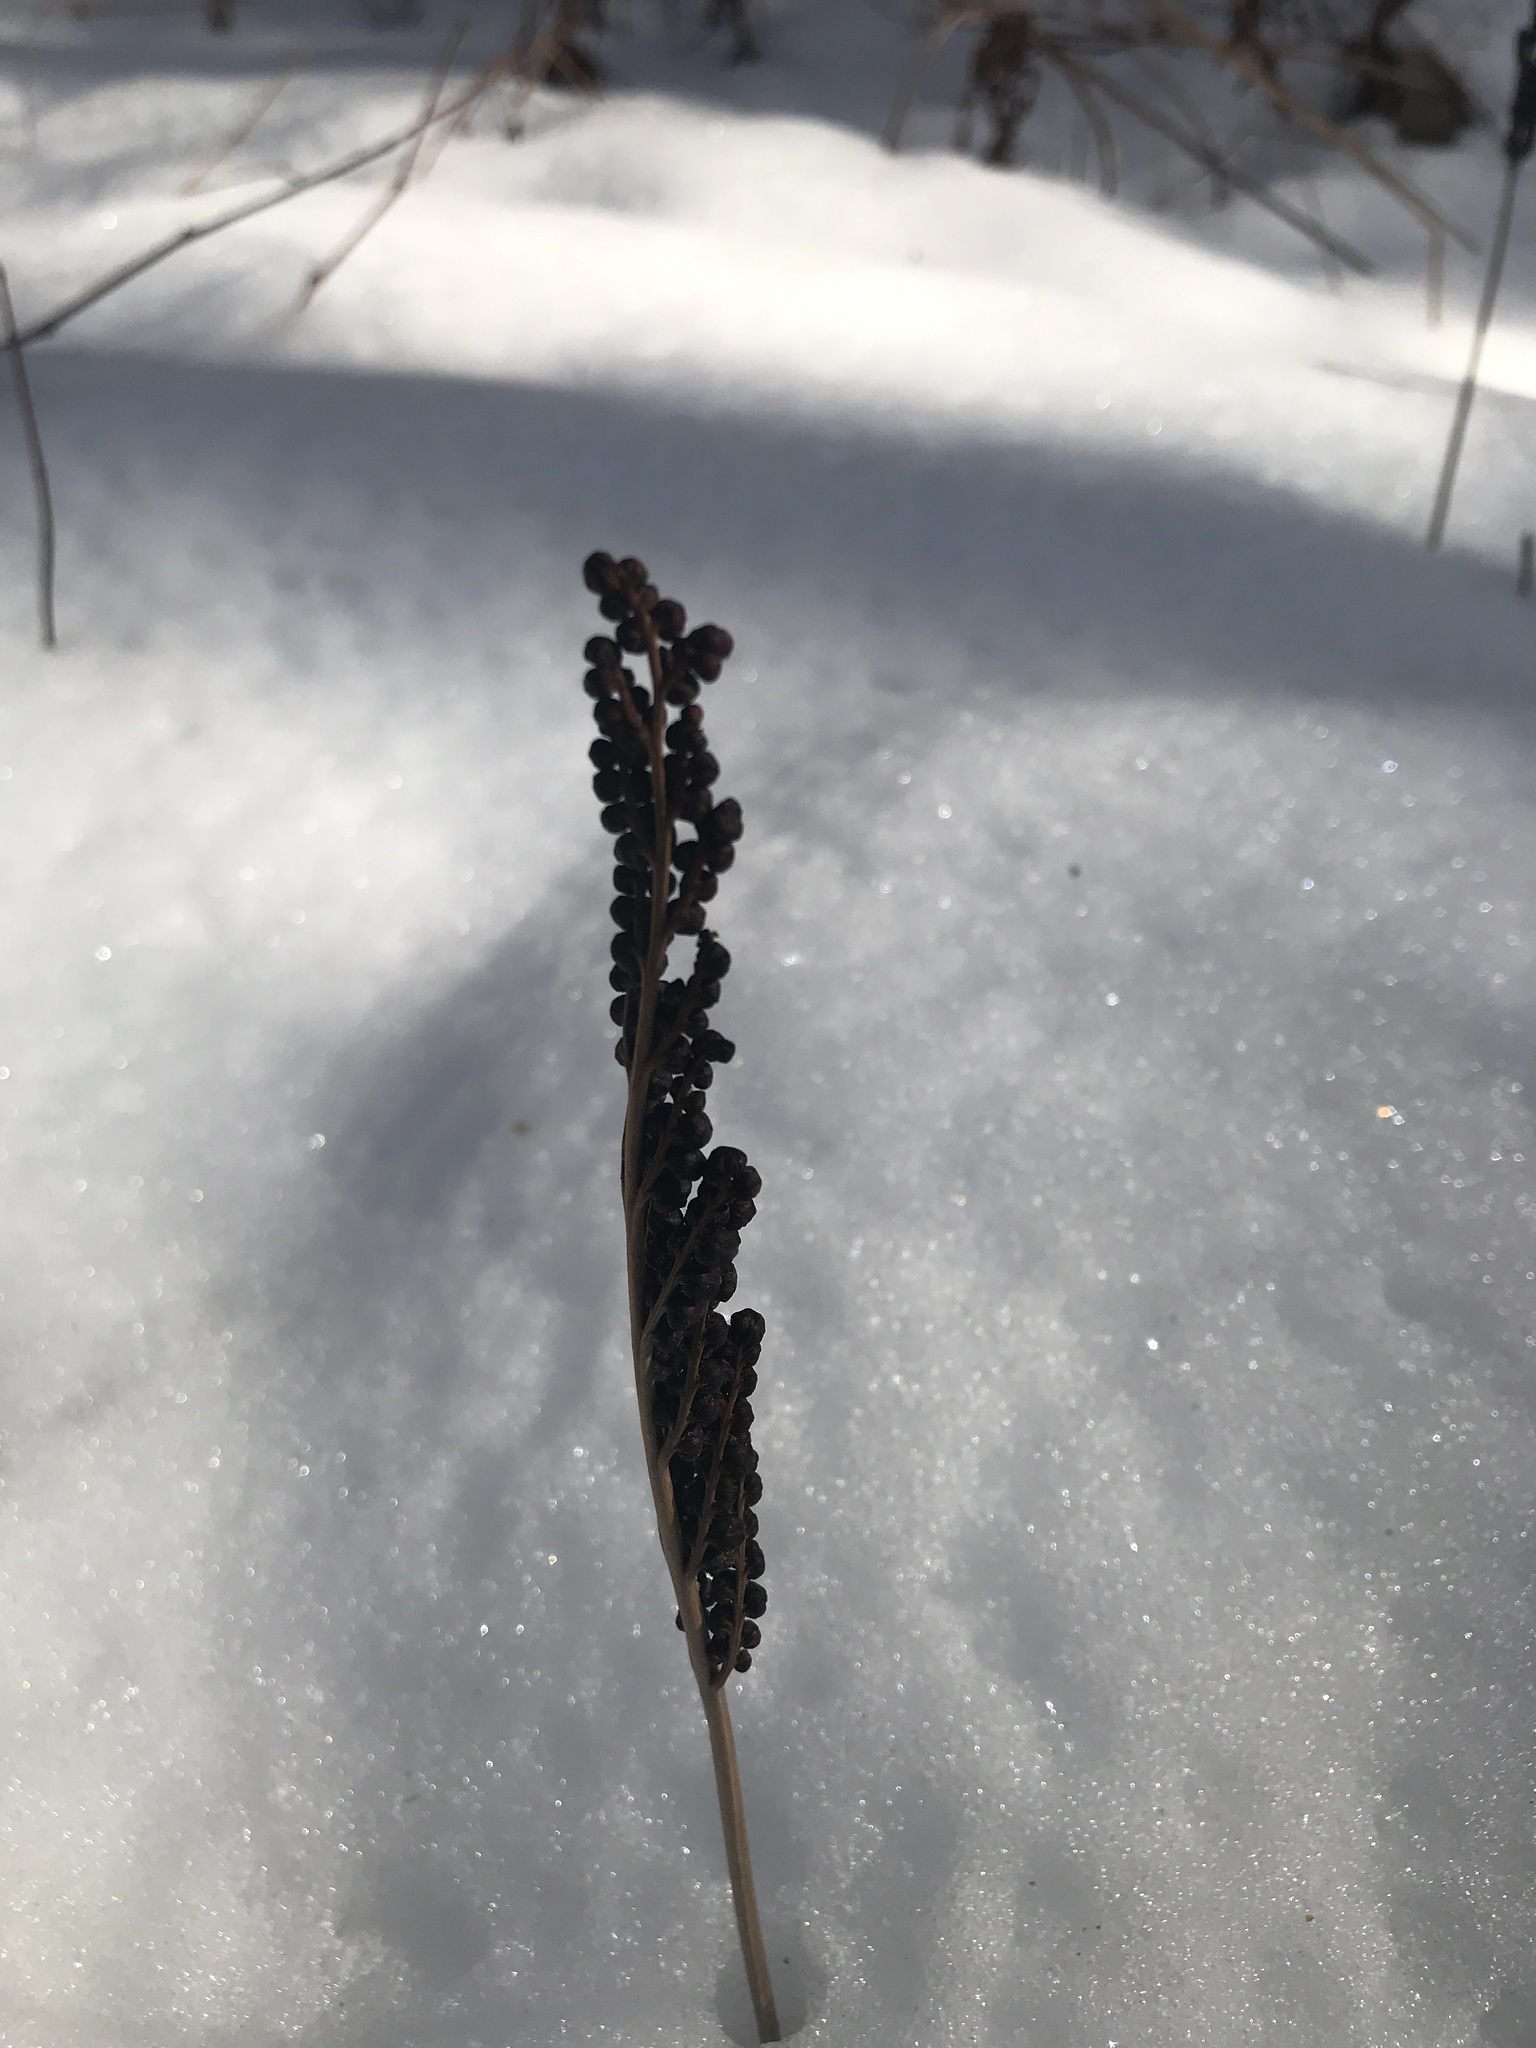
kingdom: Plantae
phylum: Tracheophyta
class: Polypodiopsida
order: Polypodiales
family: Onocleaceae
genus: Onoclea
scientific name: Onoclea sensibilis
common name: Sensitive fern
